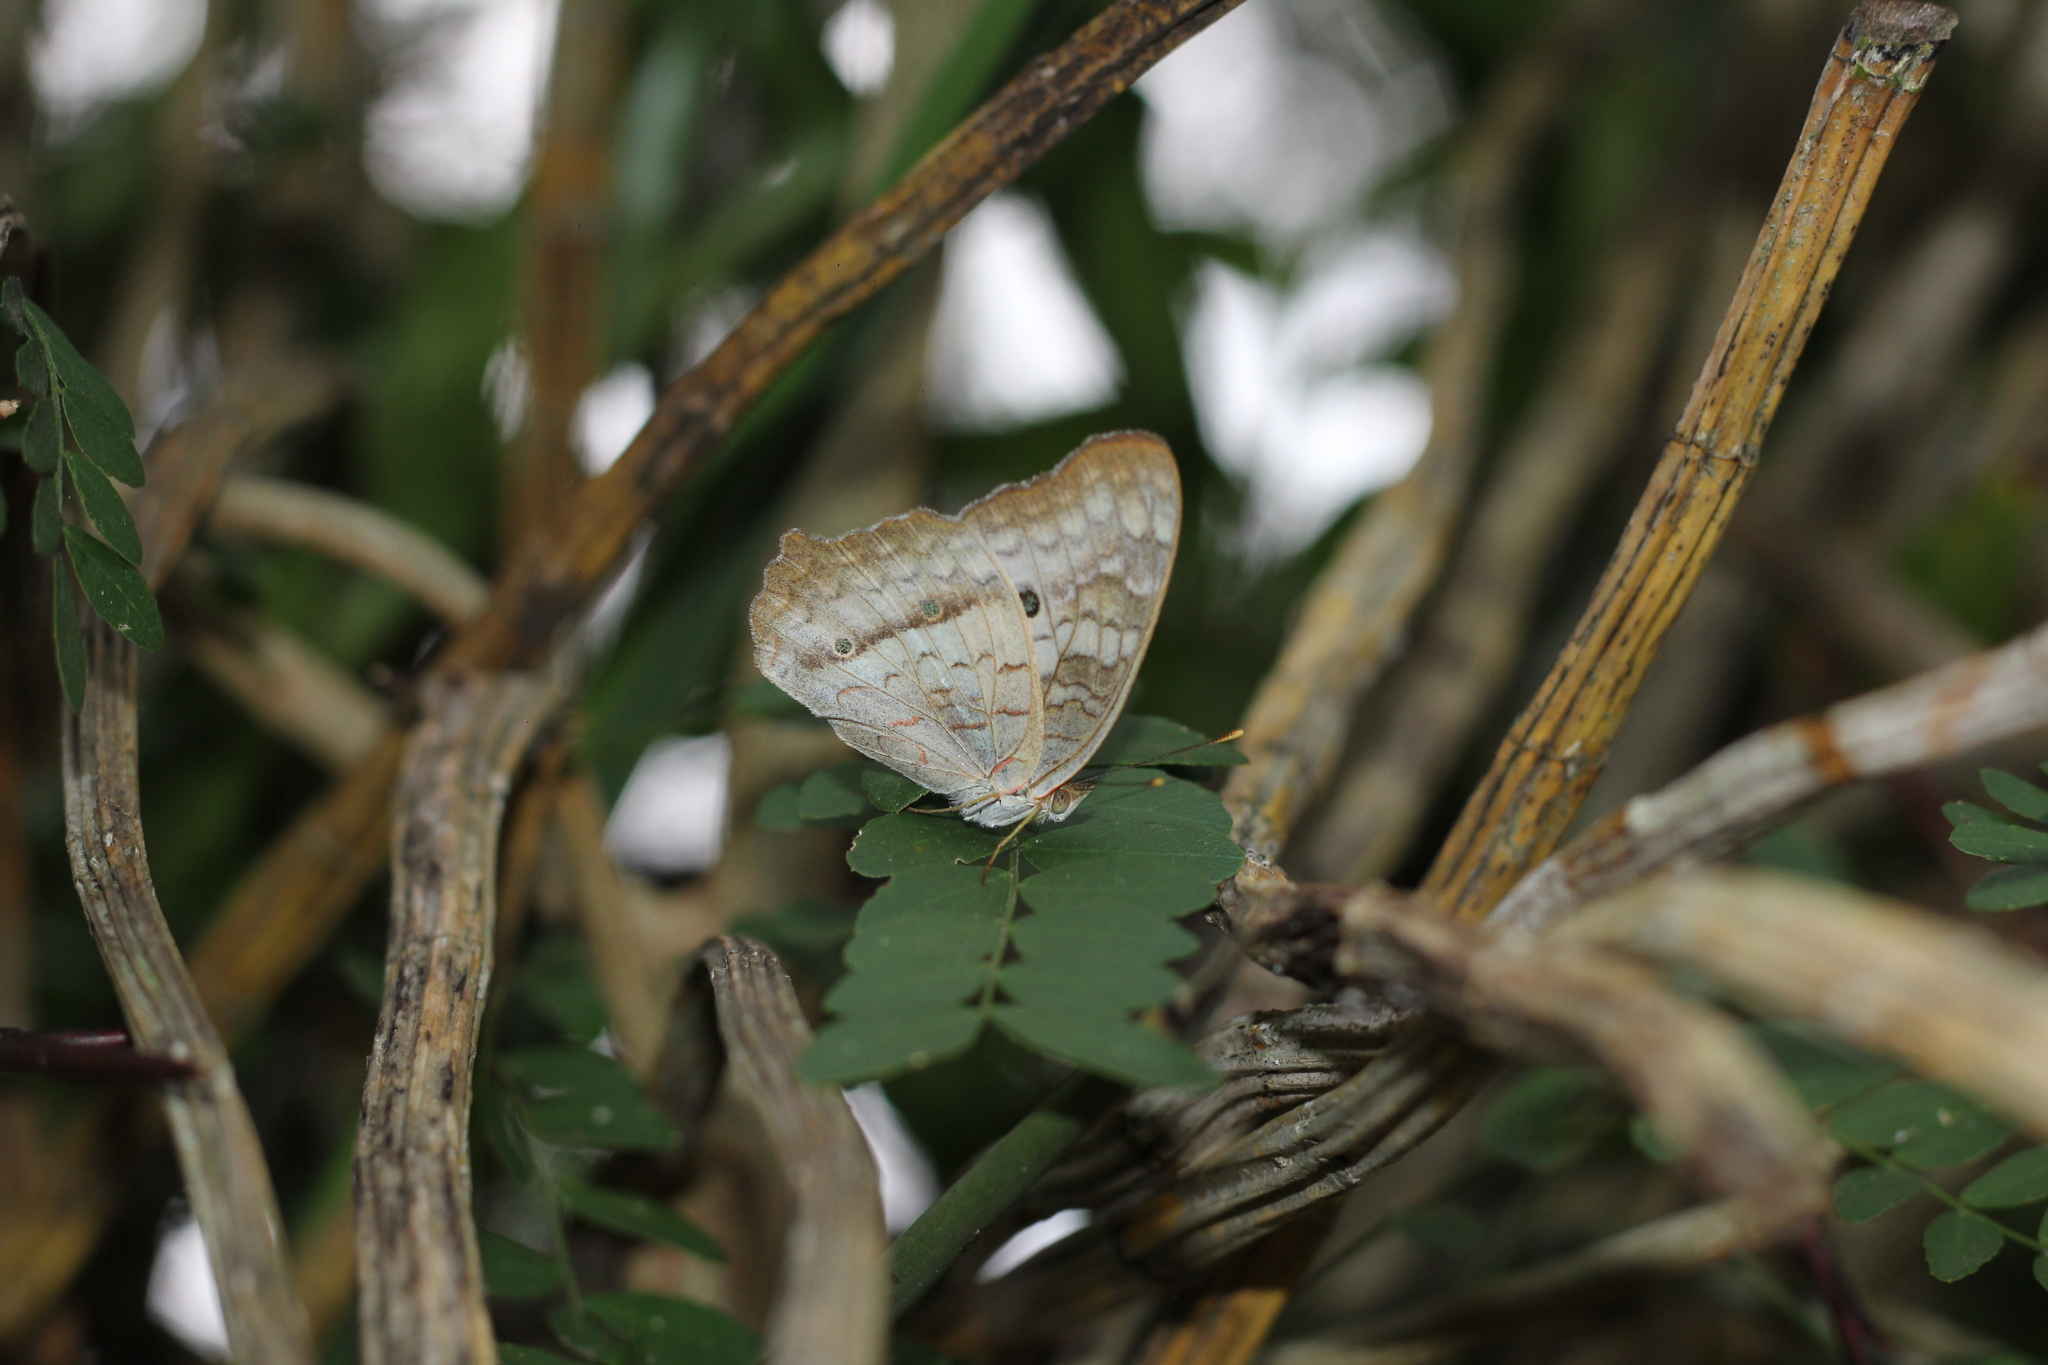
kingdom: Animalia
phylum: Arthropoda
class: Insecta
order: Lepidoptera
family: Nymphalidae
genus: Anartia
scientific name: Anartia jatrophae
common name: White peacock
